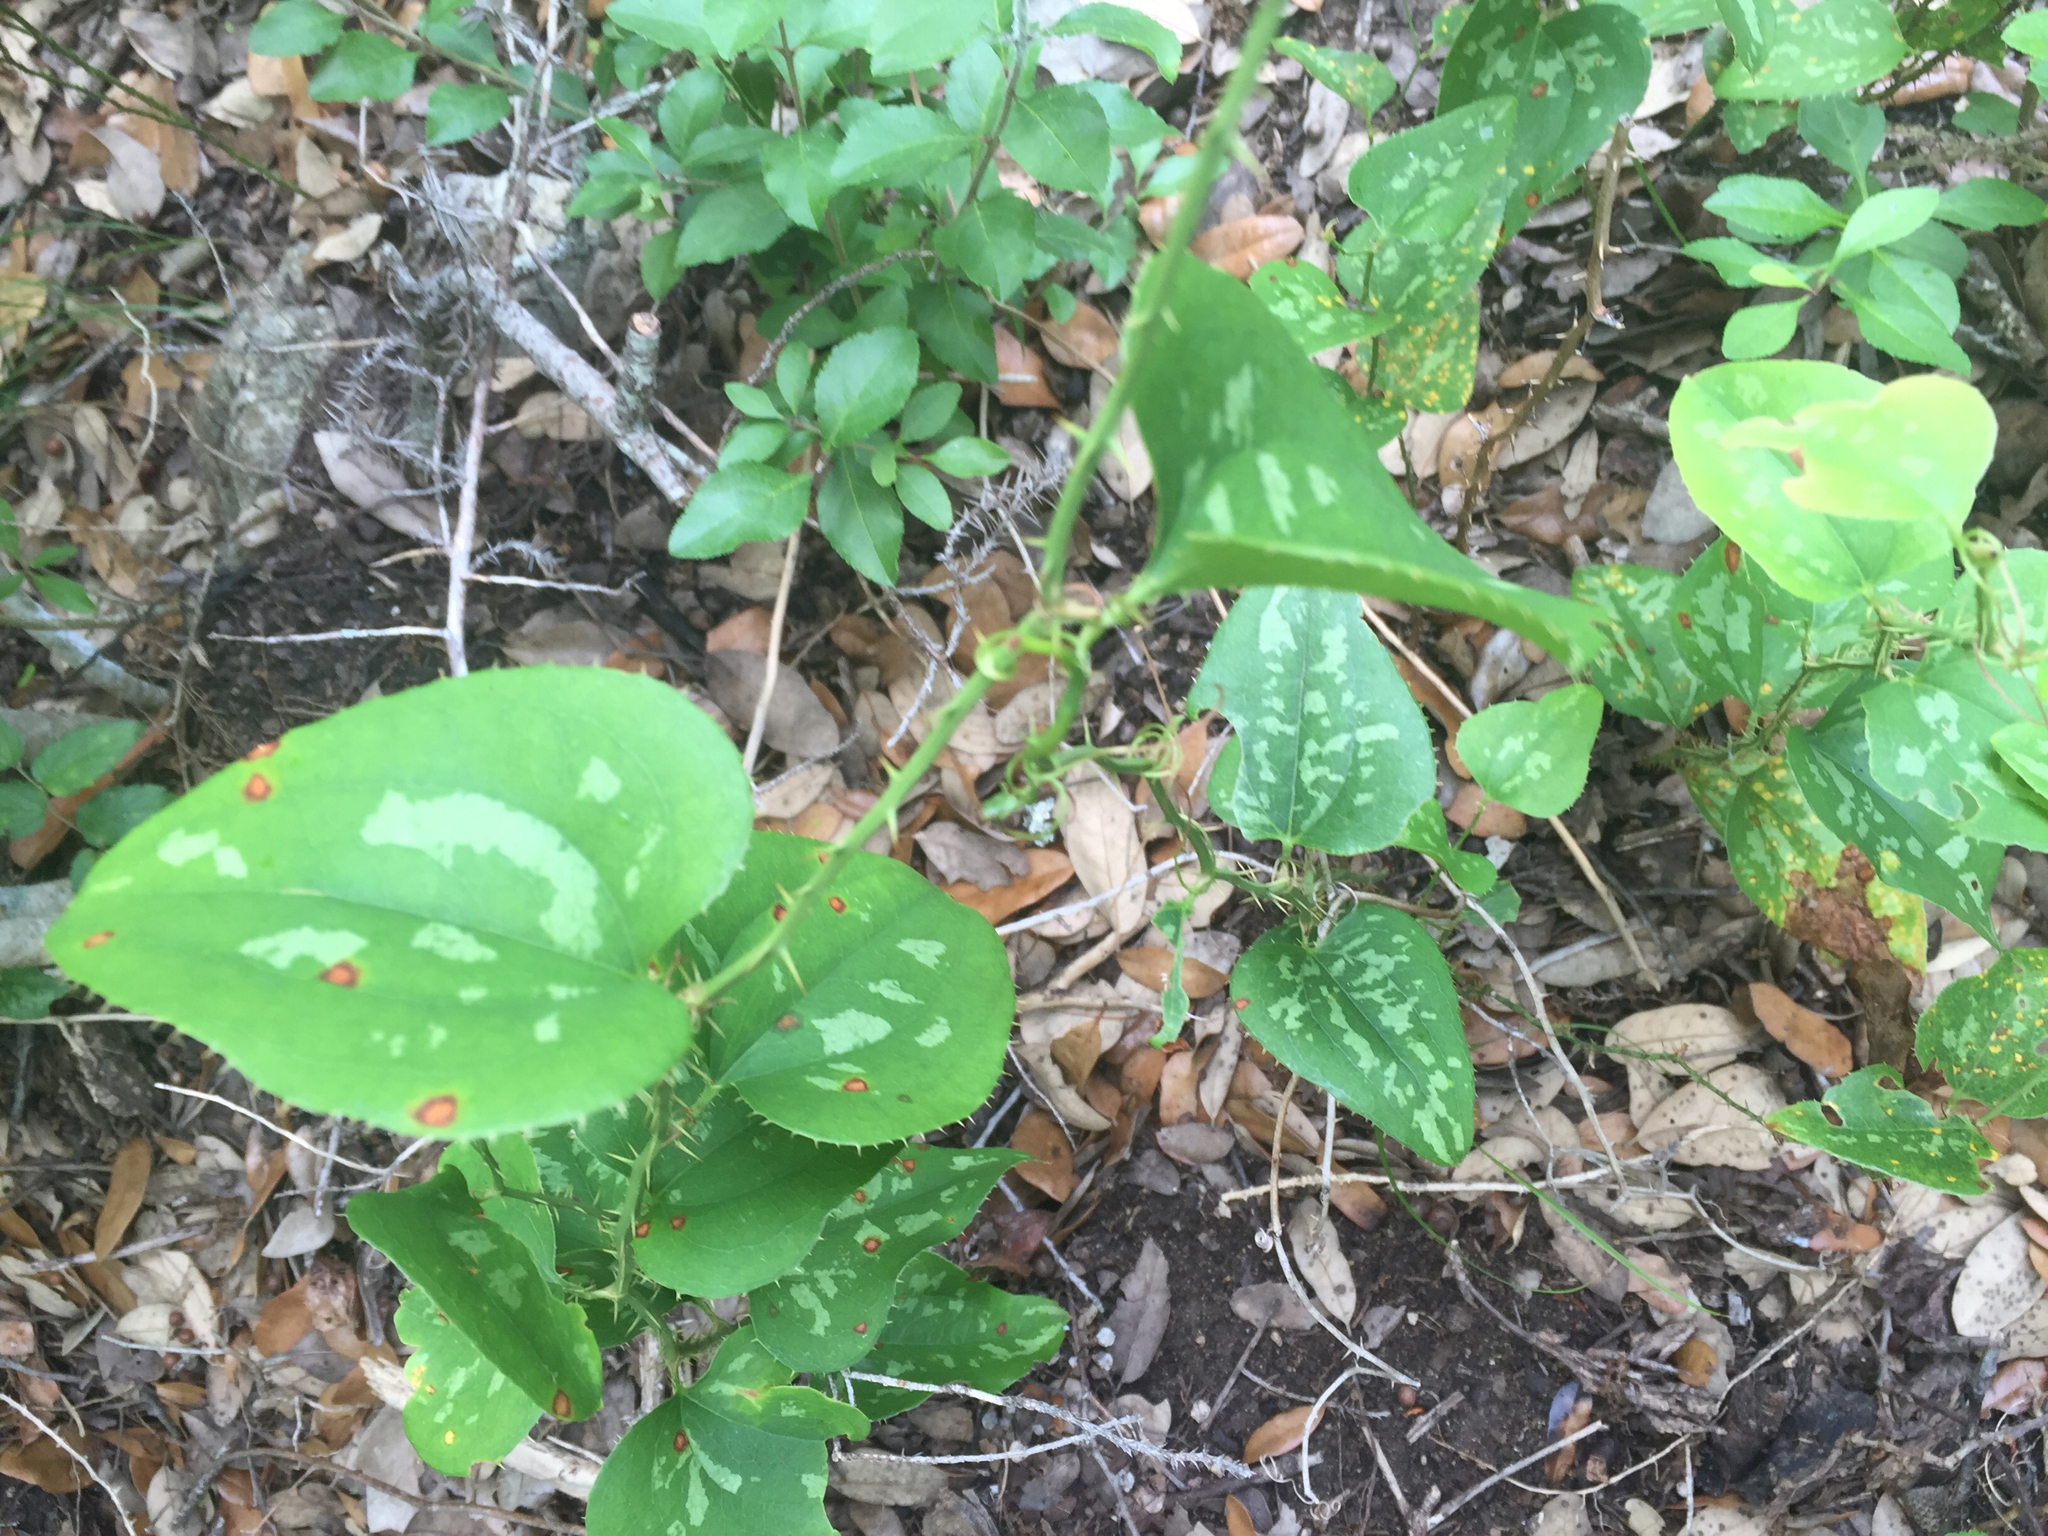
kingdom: Plantae
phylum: Tracheophyta
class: Liliopsida
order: Liliales
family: Smilacaceae
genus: Smilax
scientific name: Smilax bona-nox
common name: Catbrier
